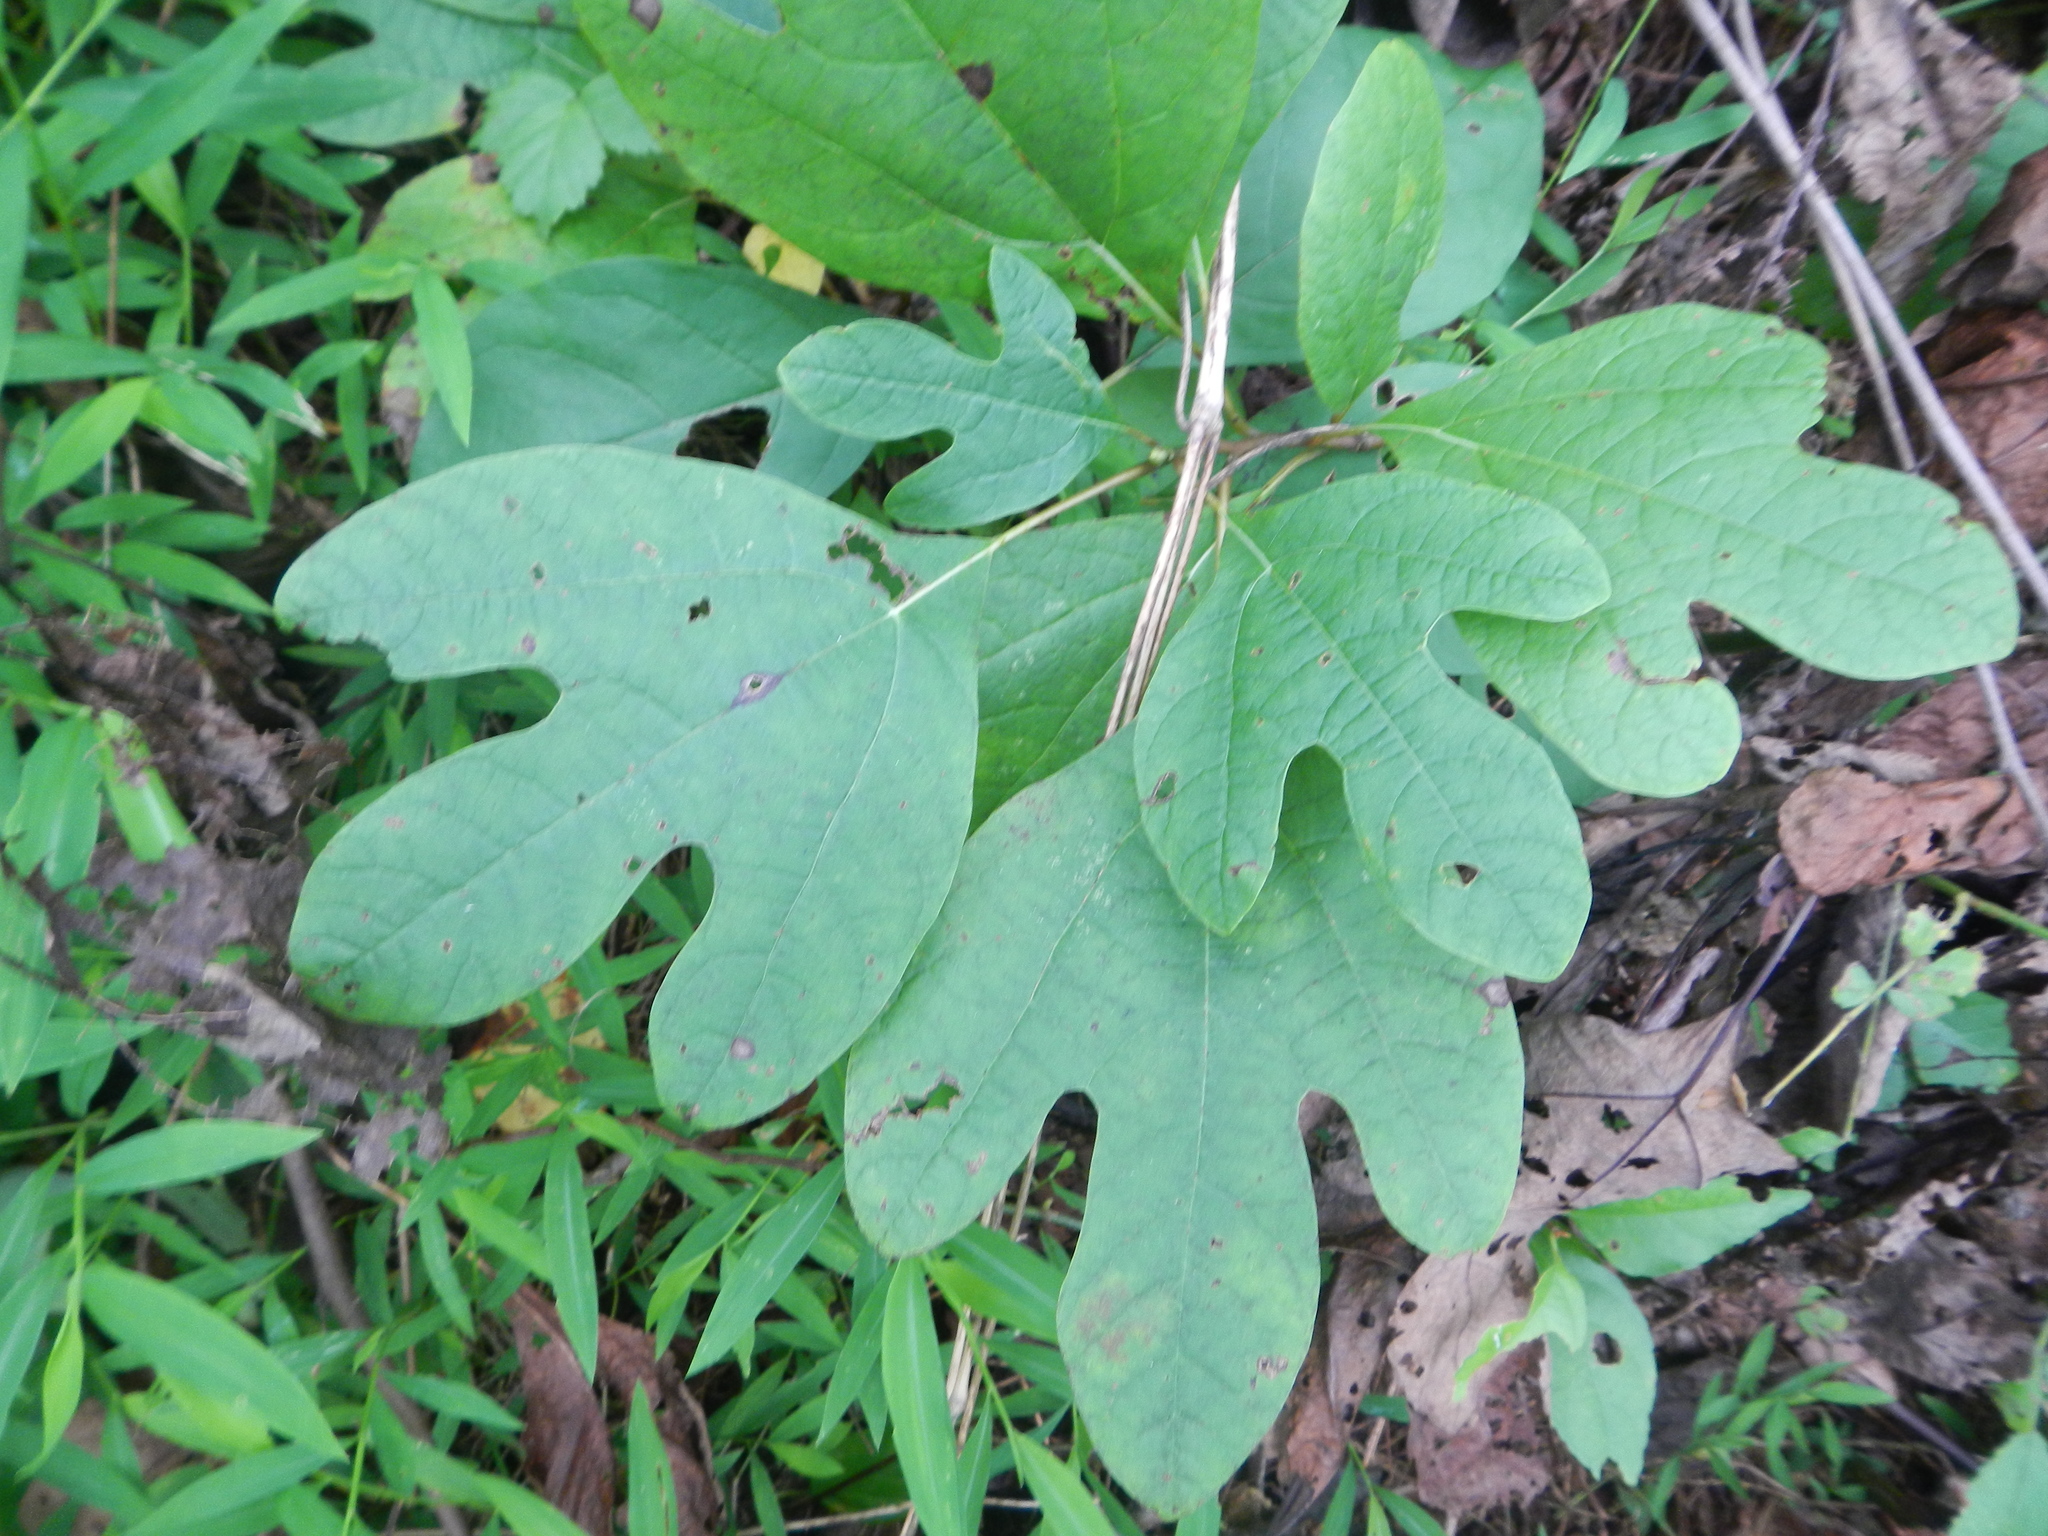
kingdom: Plantae
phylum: Tracheophyta
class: Magnoliopsida
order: Laurales
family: Lauraceae
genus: Sassafras
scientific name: Sassafras albidum
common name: Sassafras
